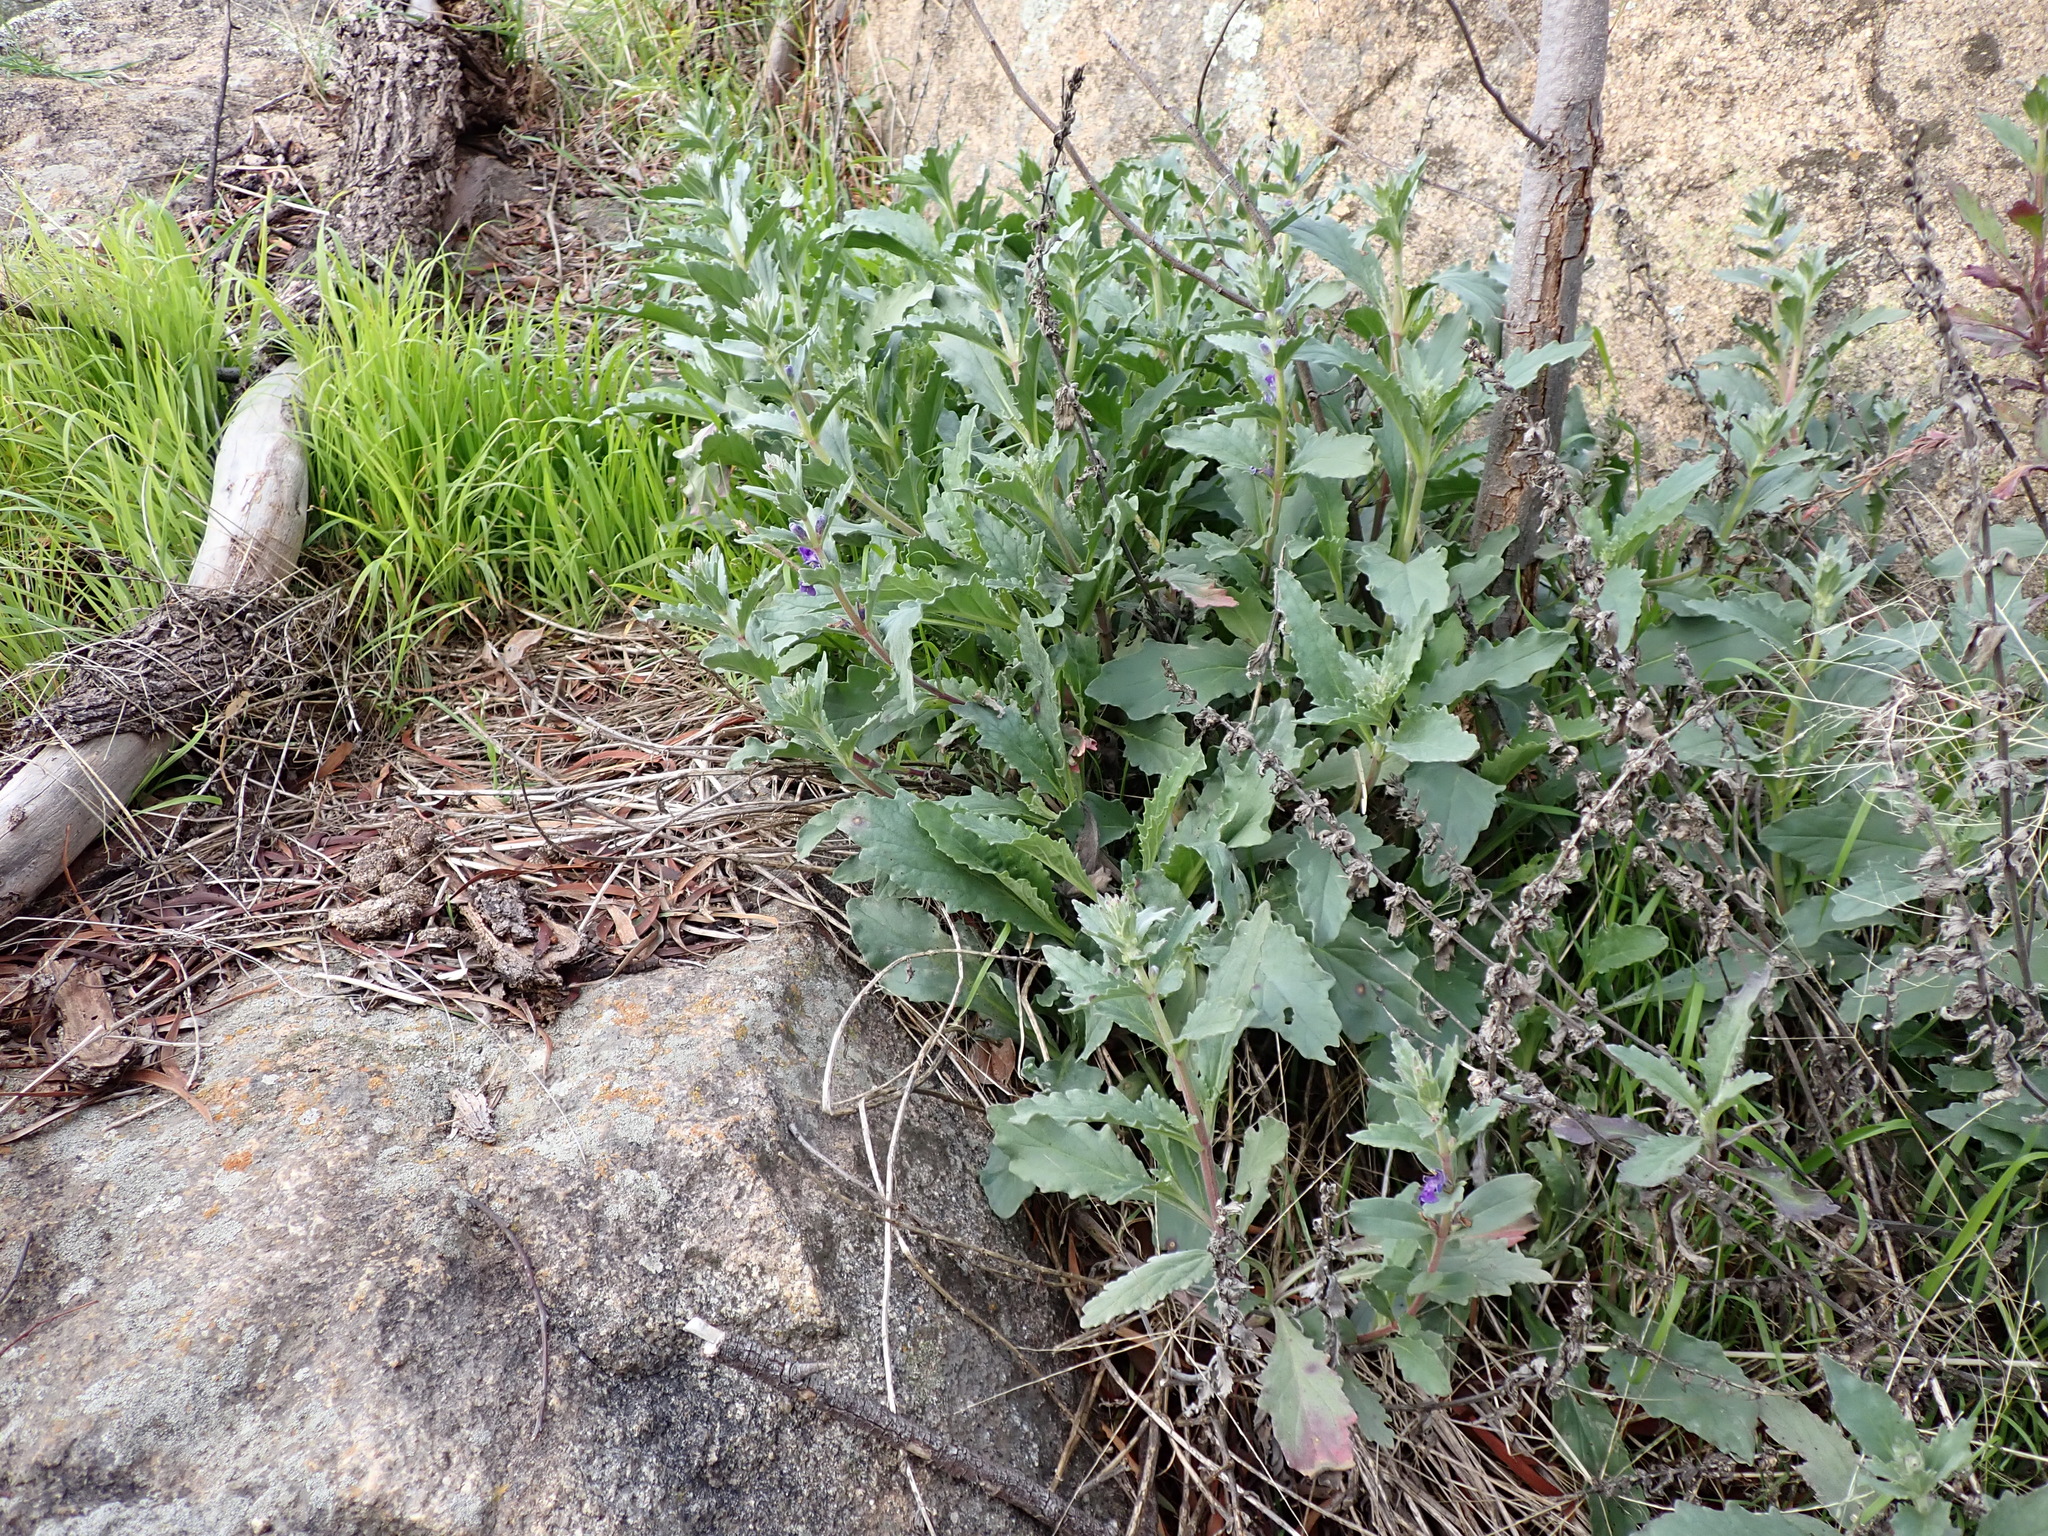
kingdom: Plantae
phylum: Tracheophyta
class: Magnoliopsida
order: Lamiales
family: Lamiaceae
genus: Ajuga
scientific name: Ajuga australis
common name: Australian bugle
